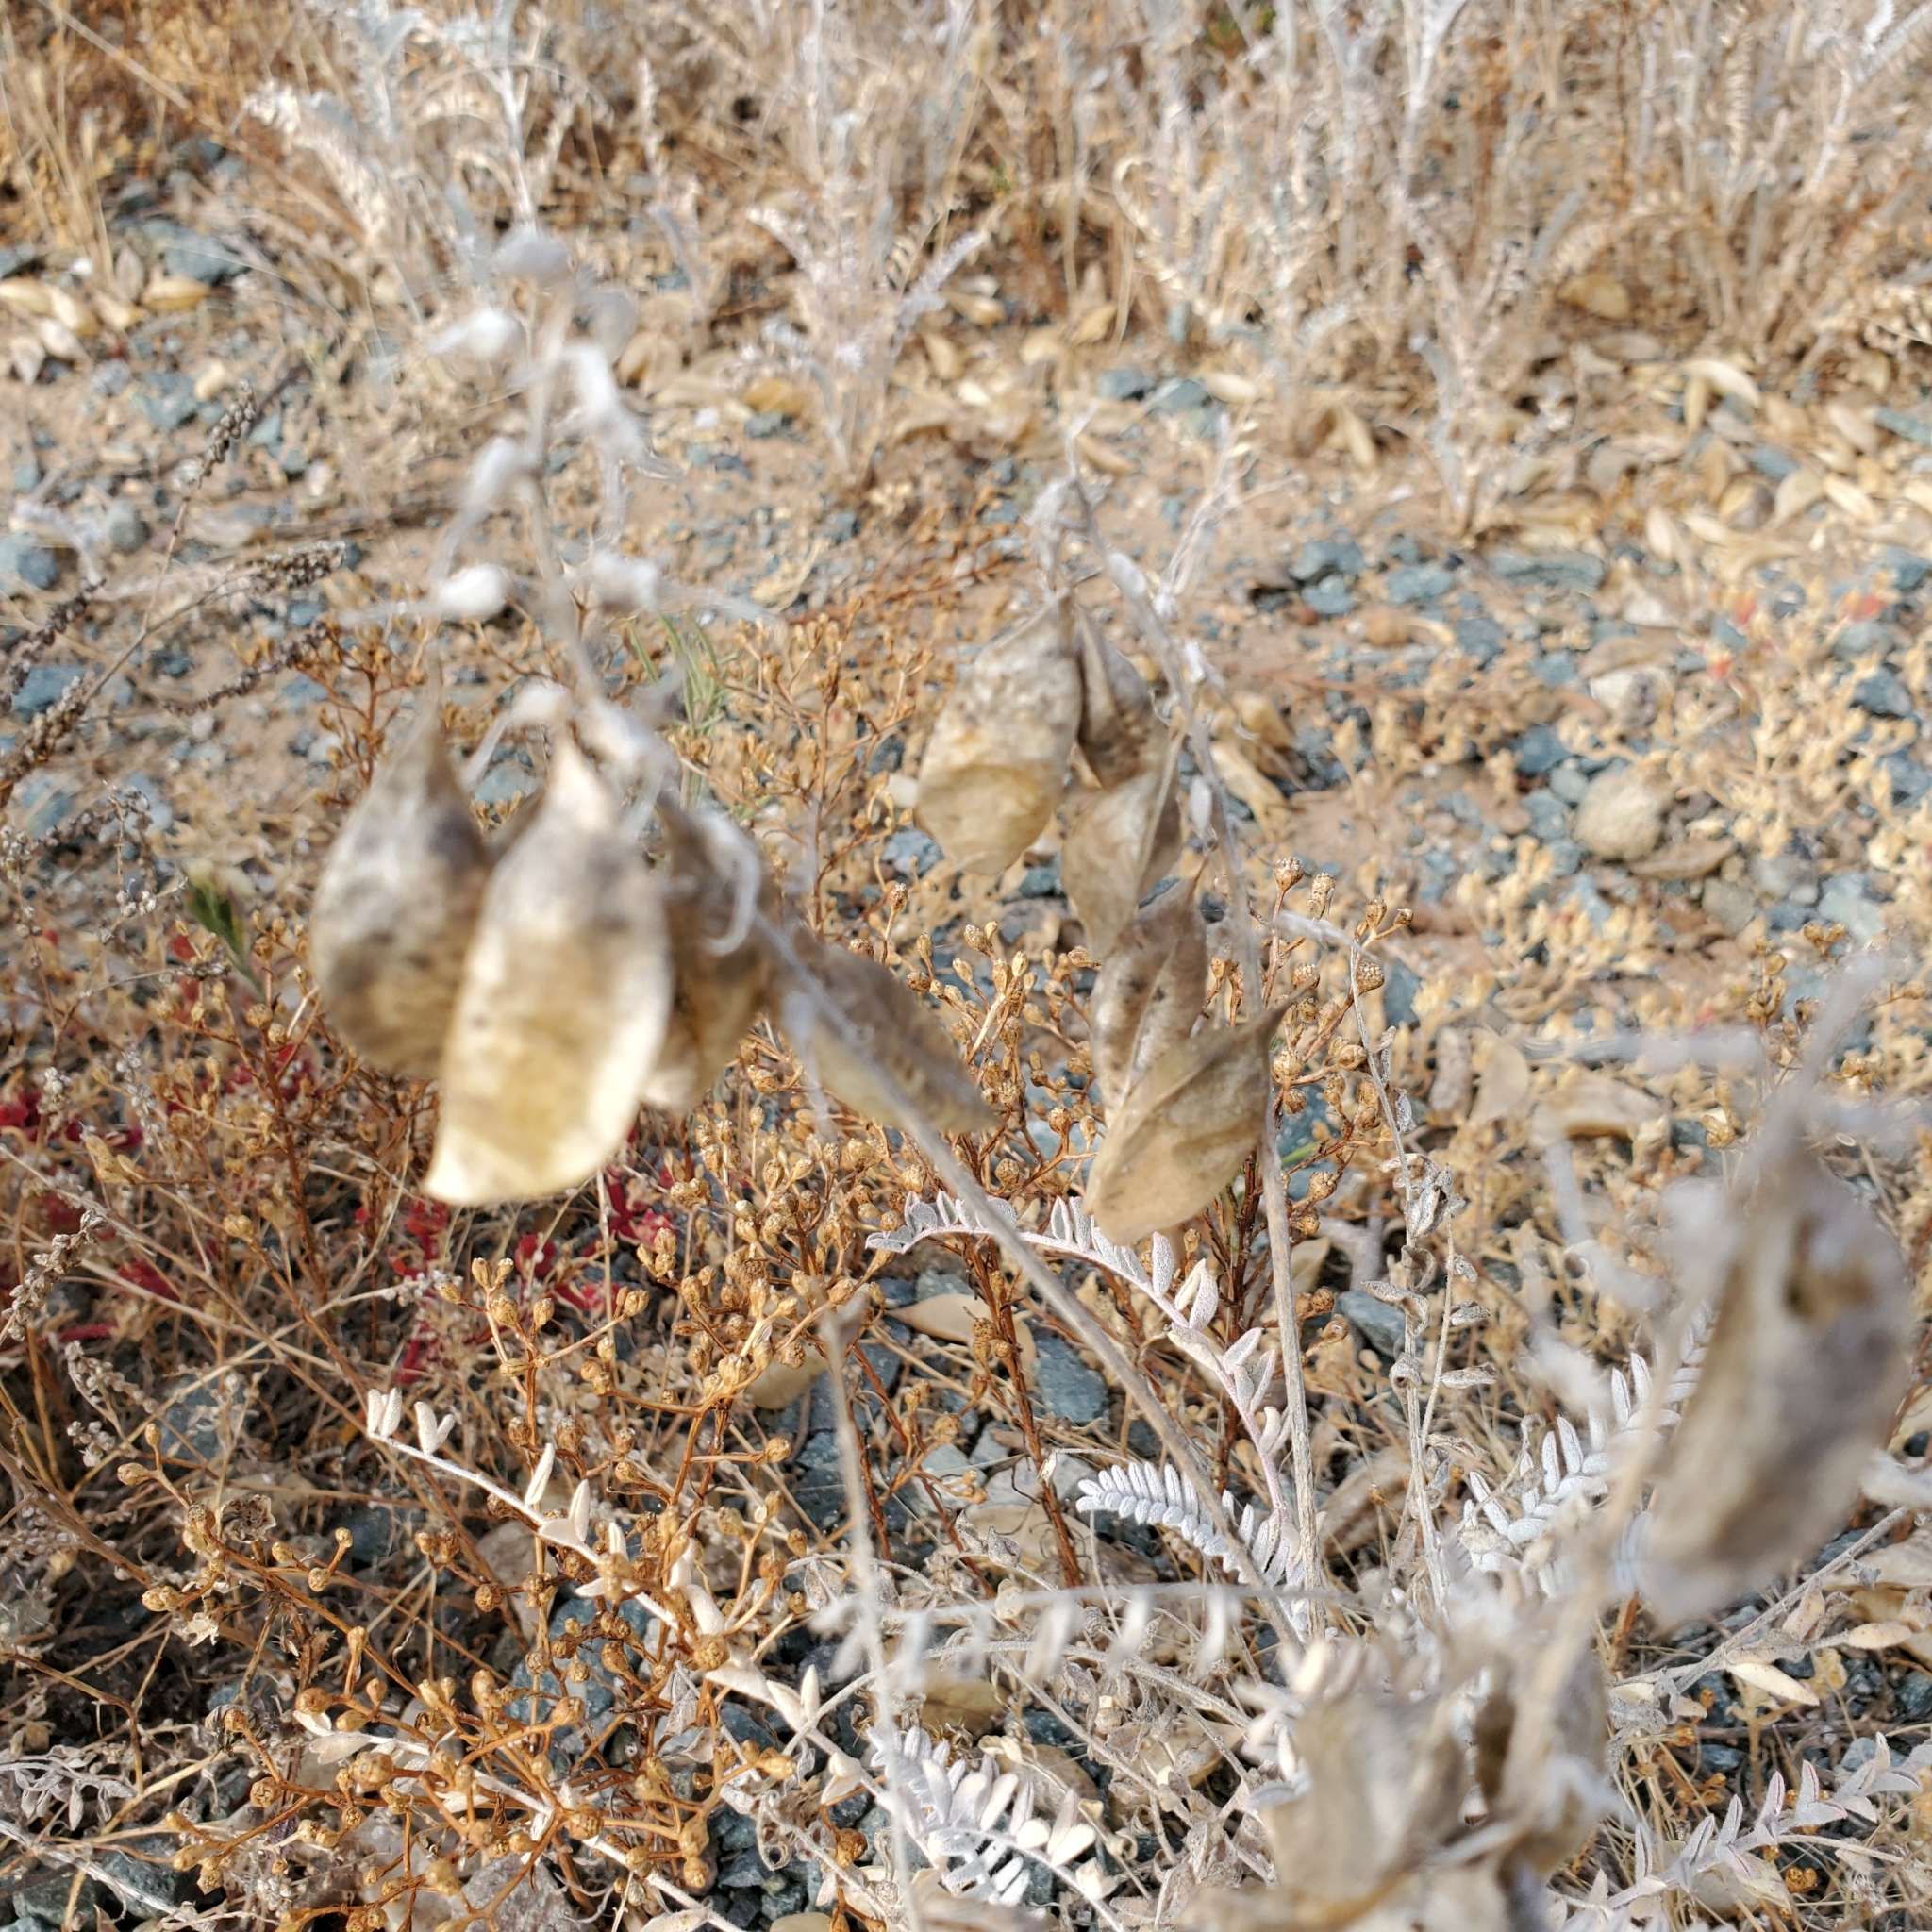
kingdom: Plantae
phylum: Tracheophyta
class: Magnoliopsida
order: Fabales
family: Fabaceae
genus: Astragalus
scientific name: Astragalus trichopodus
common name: Santa barbara milk-vetch
